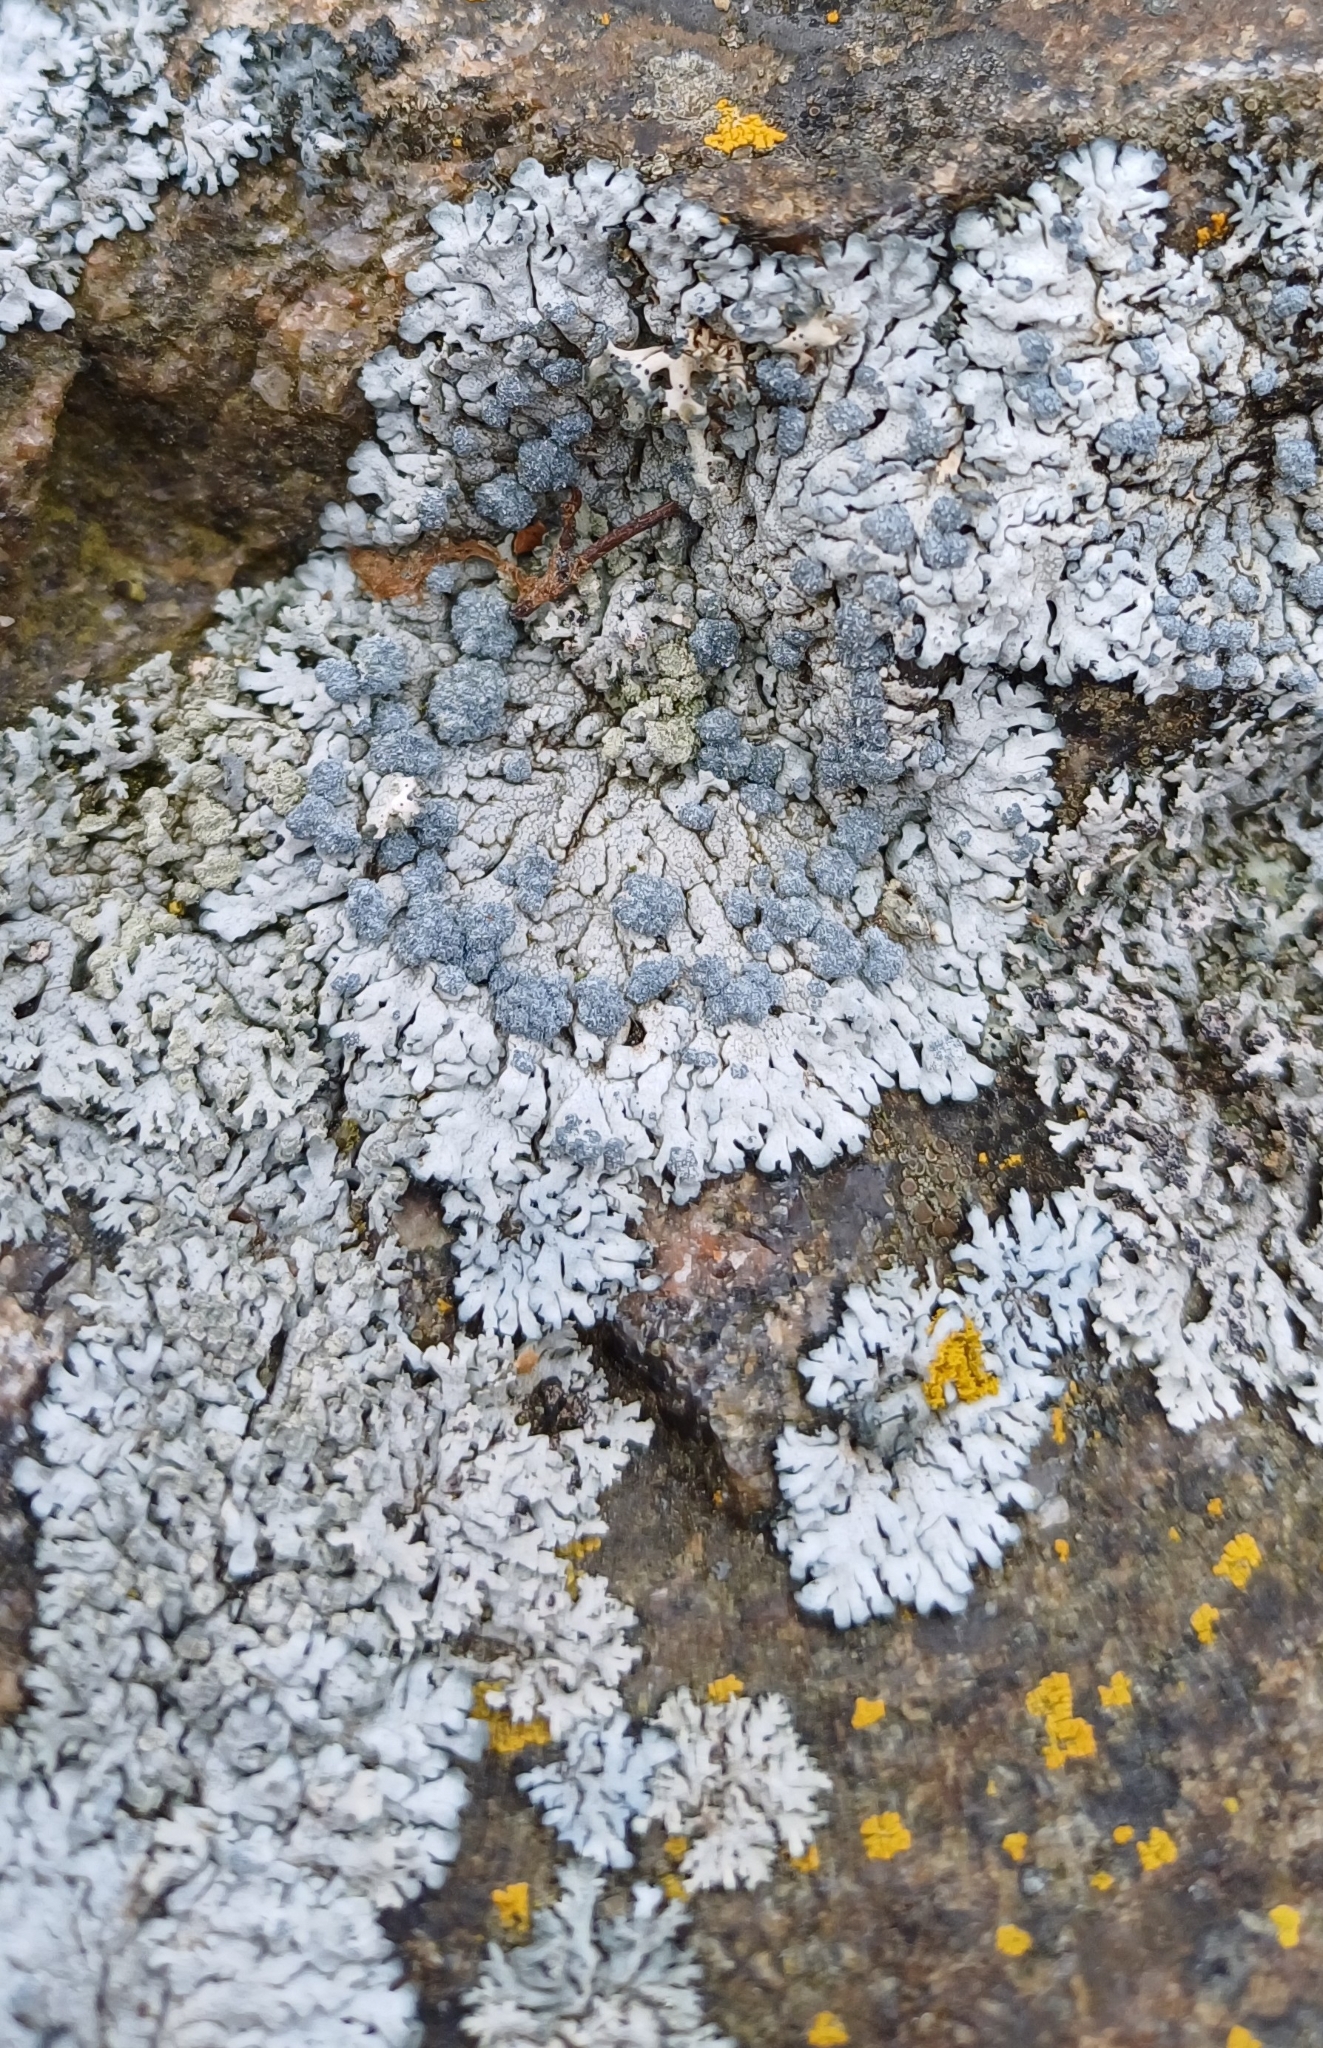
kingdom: Fungi
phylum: Ascomycota
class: Lecanoromycetes
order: Caliciales
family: Physciaceae
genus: Physcia
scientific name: Physcia caesia
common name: Blue-gray rosette lichen
